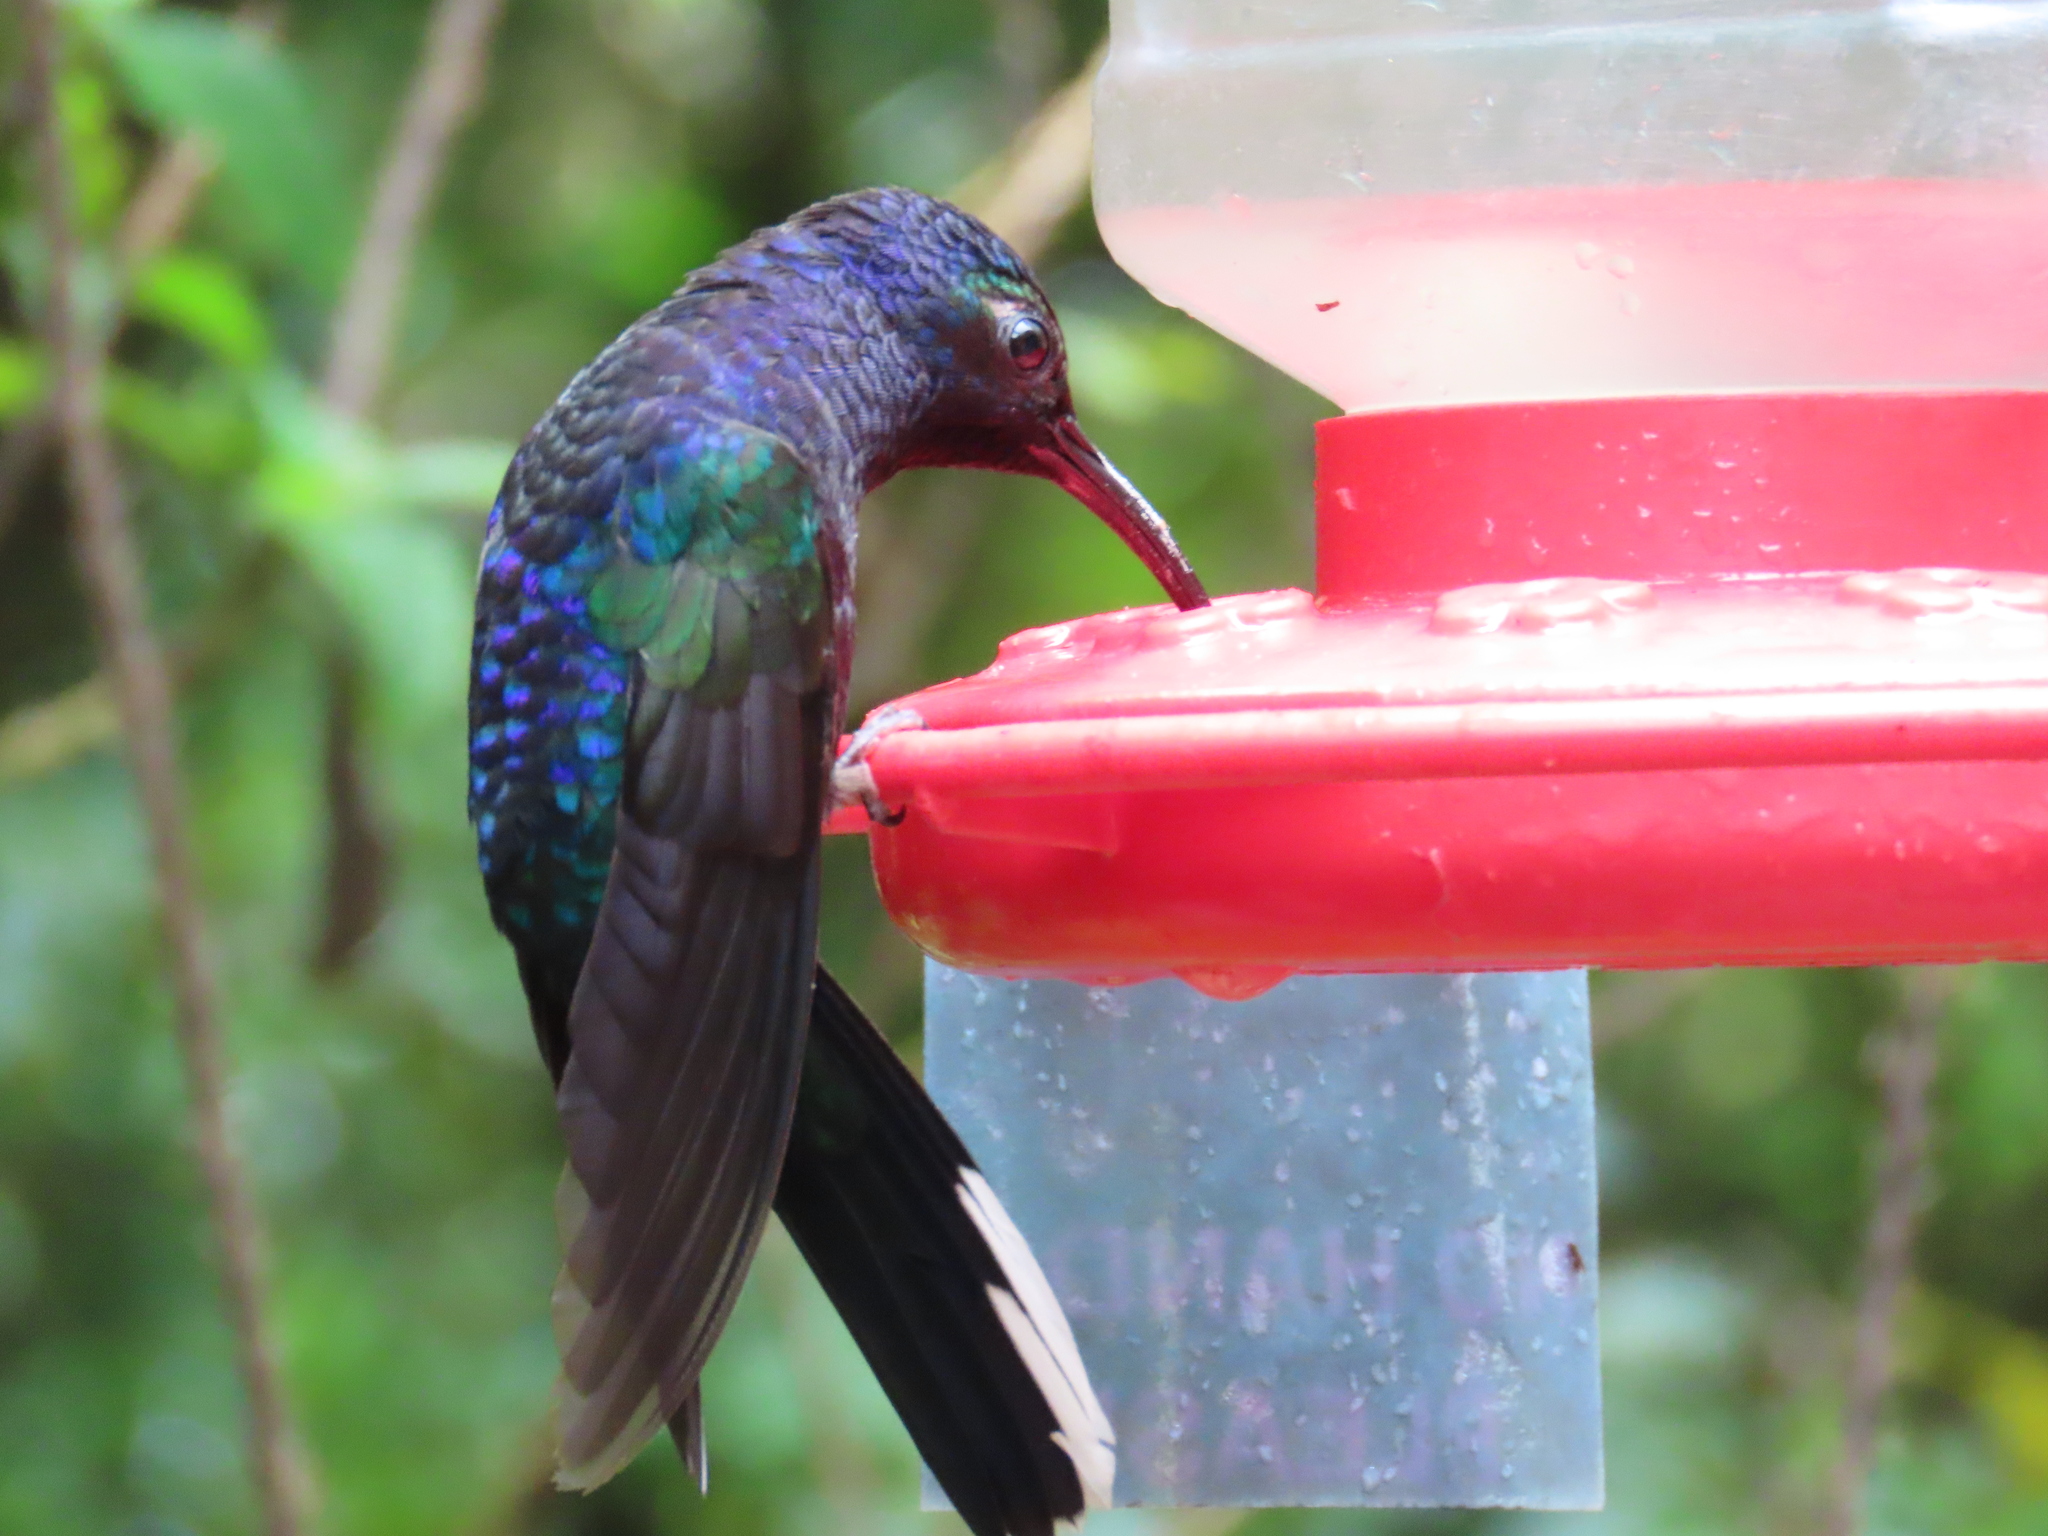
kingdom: Animalia
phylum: Chordata
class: Aves
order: Apodiformes
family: Trochilidae
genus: Campylopterus
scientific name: Campylopterus hemileucurus
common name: Violet sabrewing
